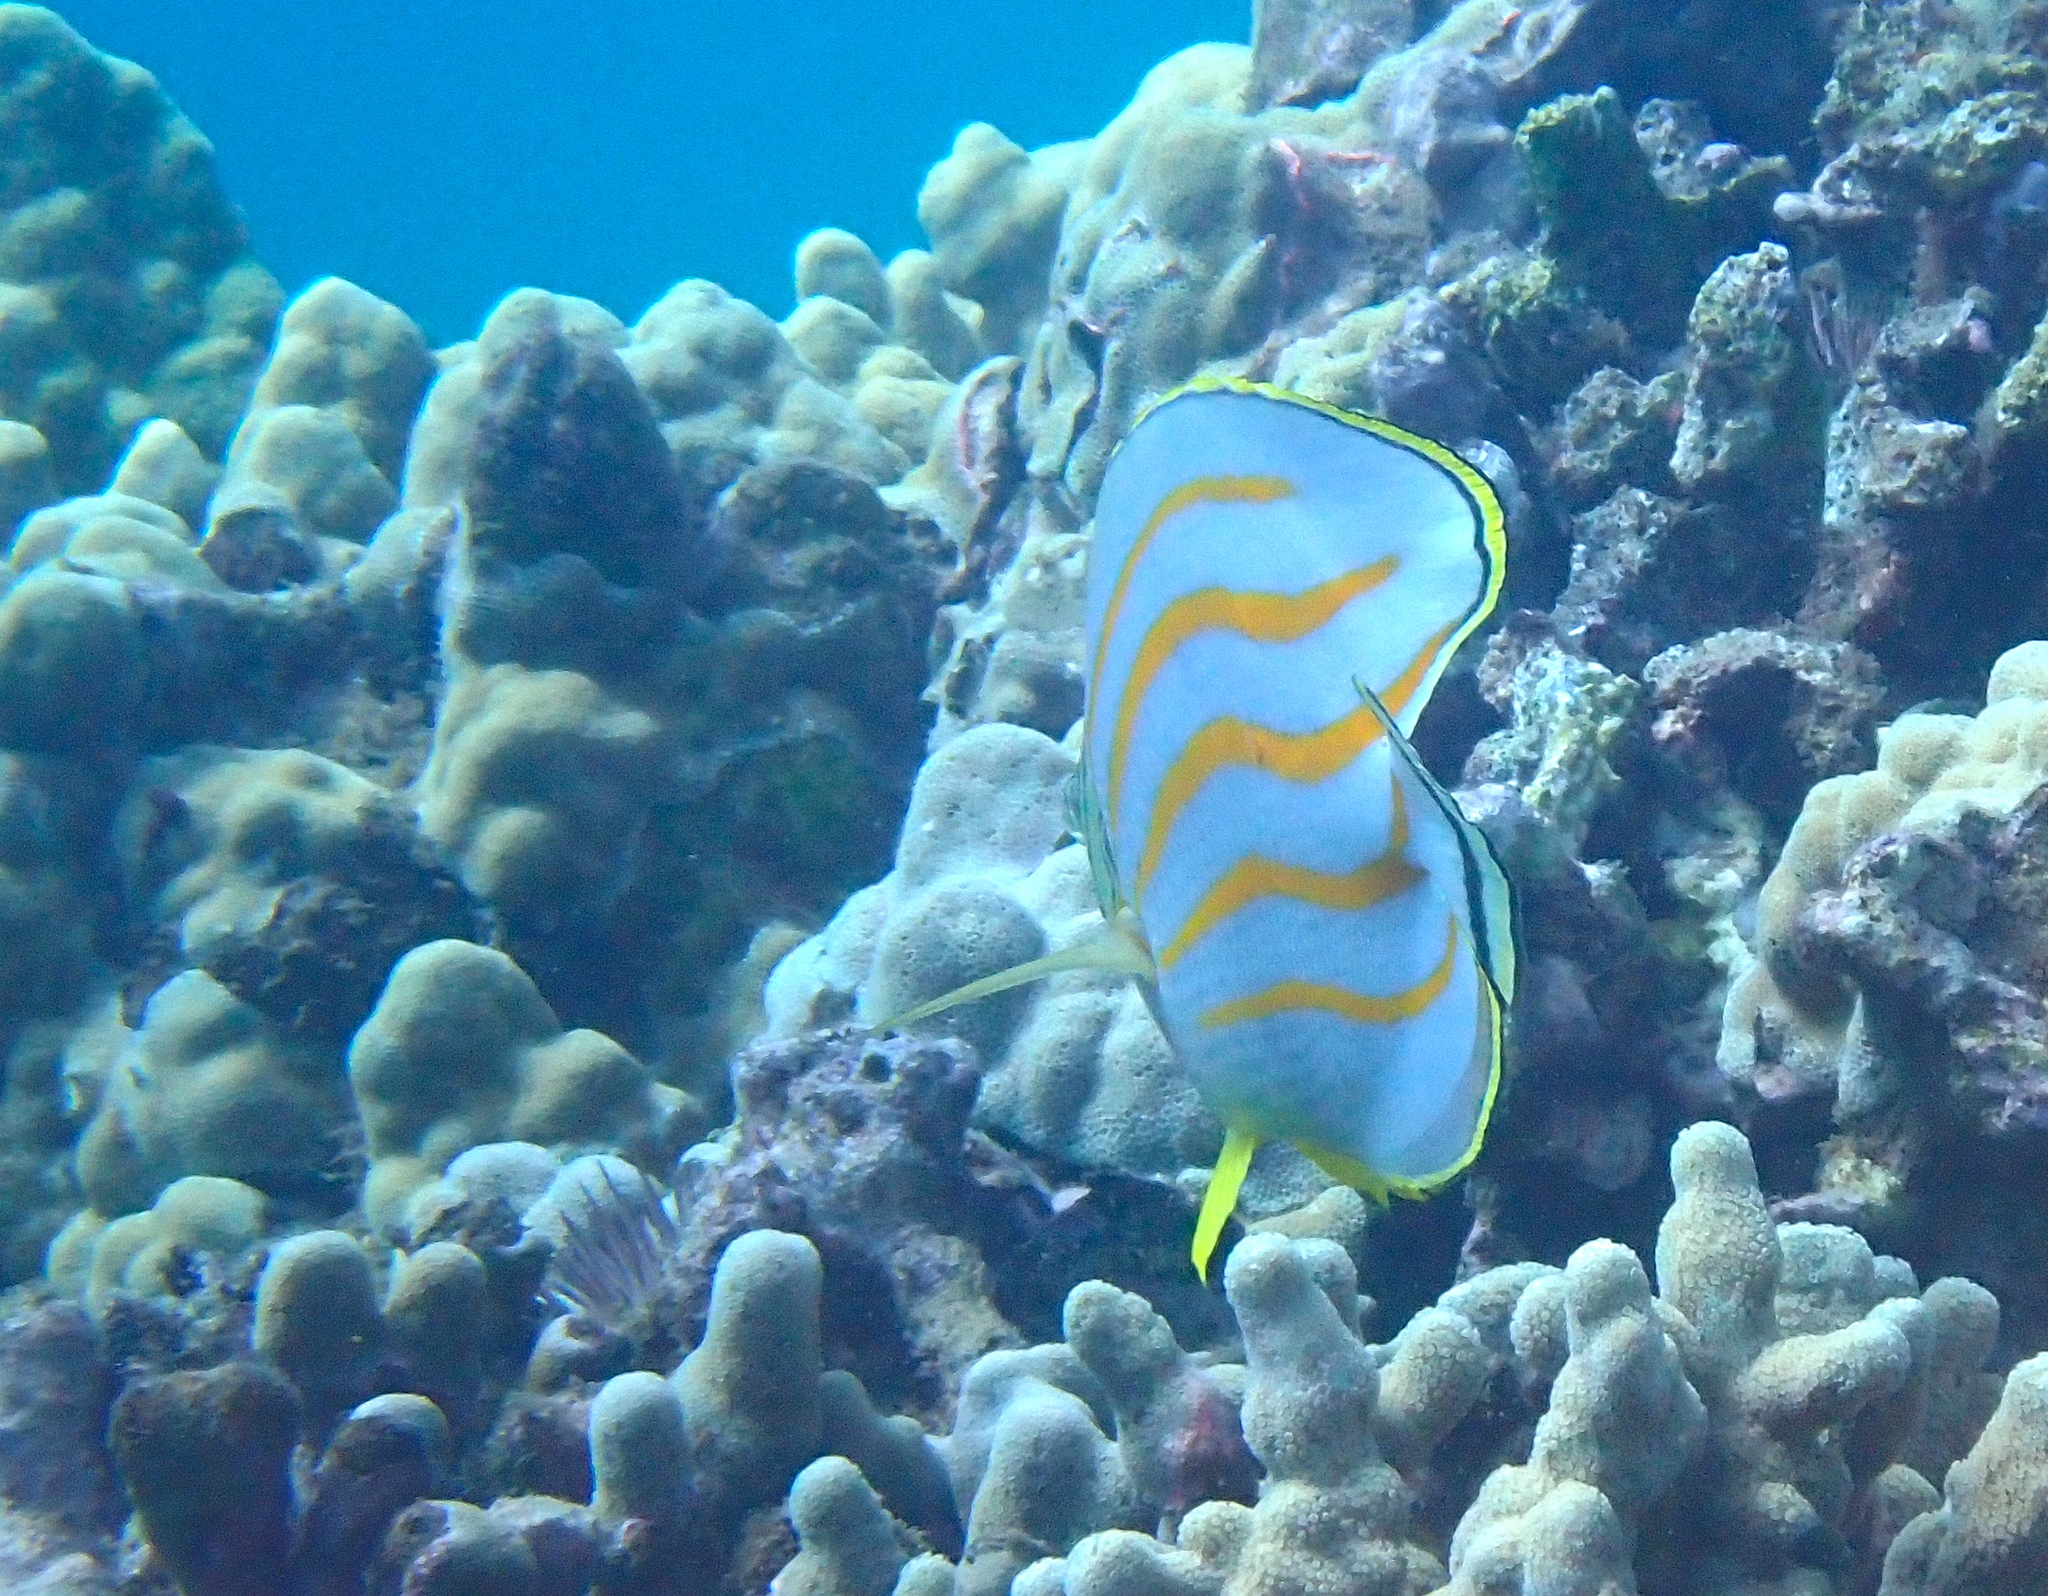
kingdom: Animalia
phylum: Chordata
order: Perciformes
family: Chaetodontidae
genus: Chaetodon
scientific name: Chaetodon ornatissimus
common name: Ornate butterflyfish
